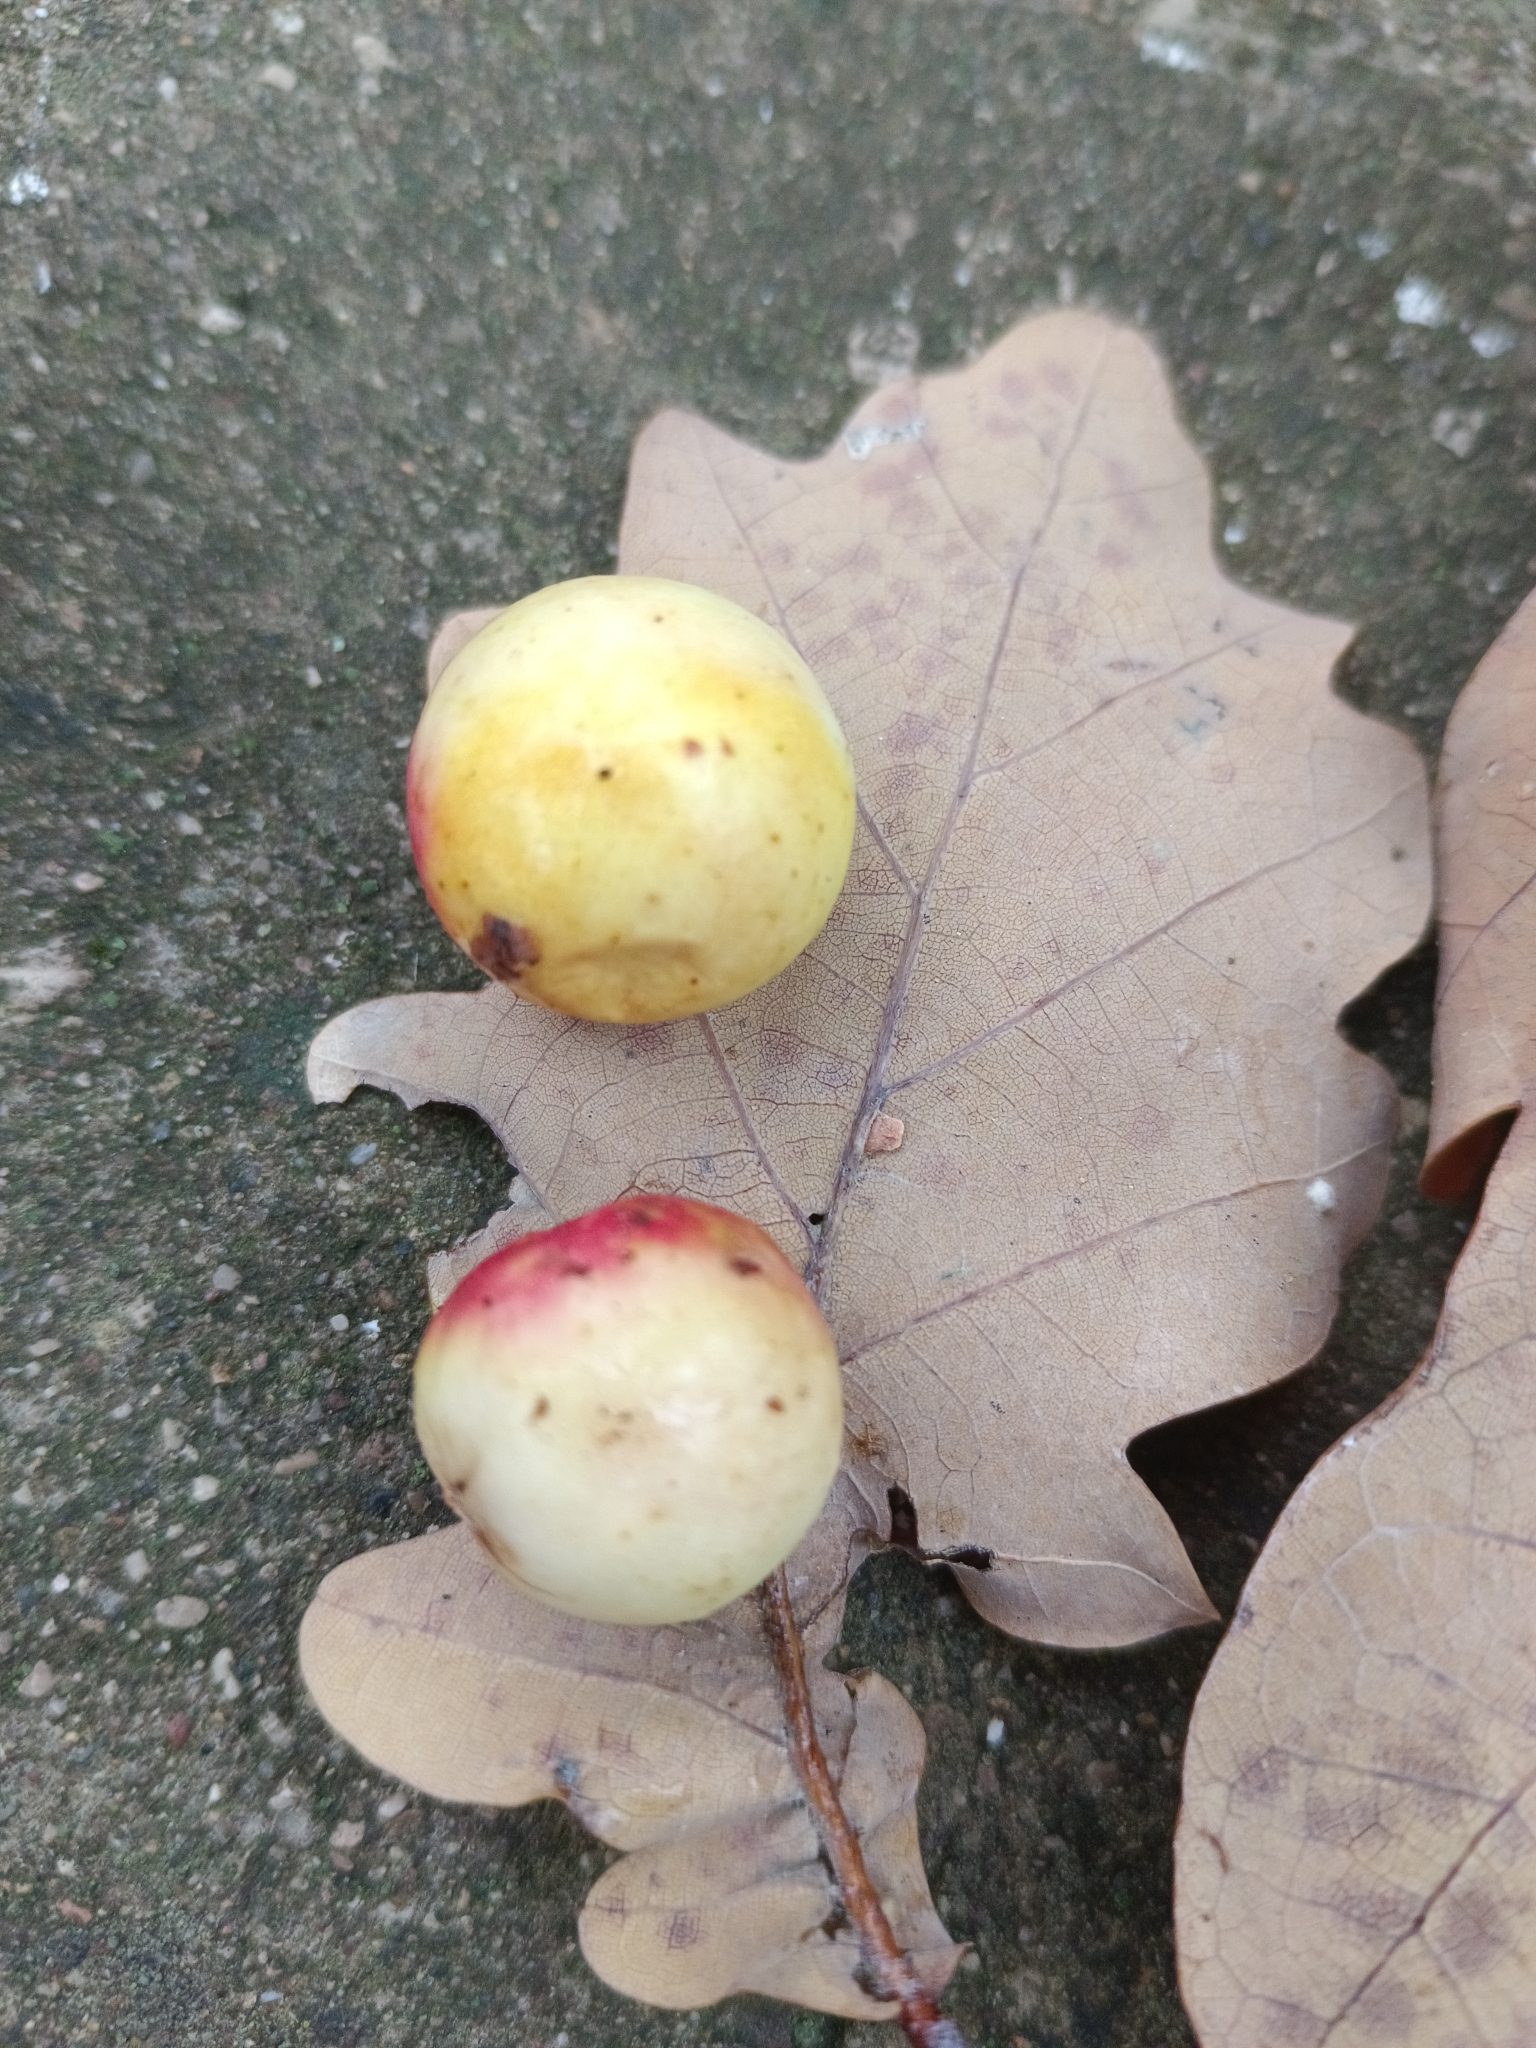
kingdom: Animalia
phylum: Arthropoda
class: Insecta
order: Hymenoptera
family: Cynipidae
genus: Cynips
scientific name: Cynips quercusfolii
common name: Cherry gall
